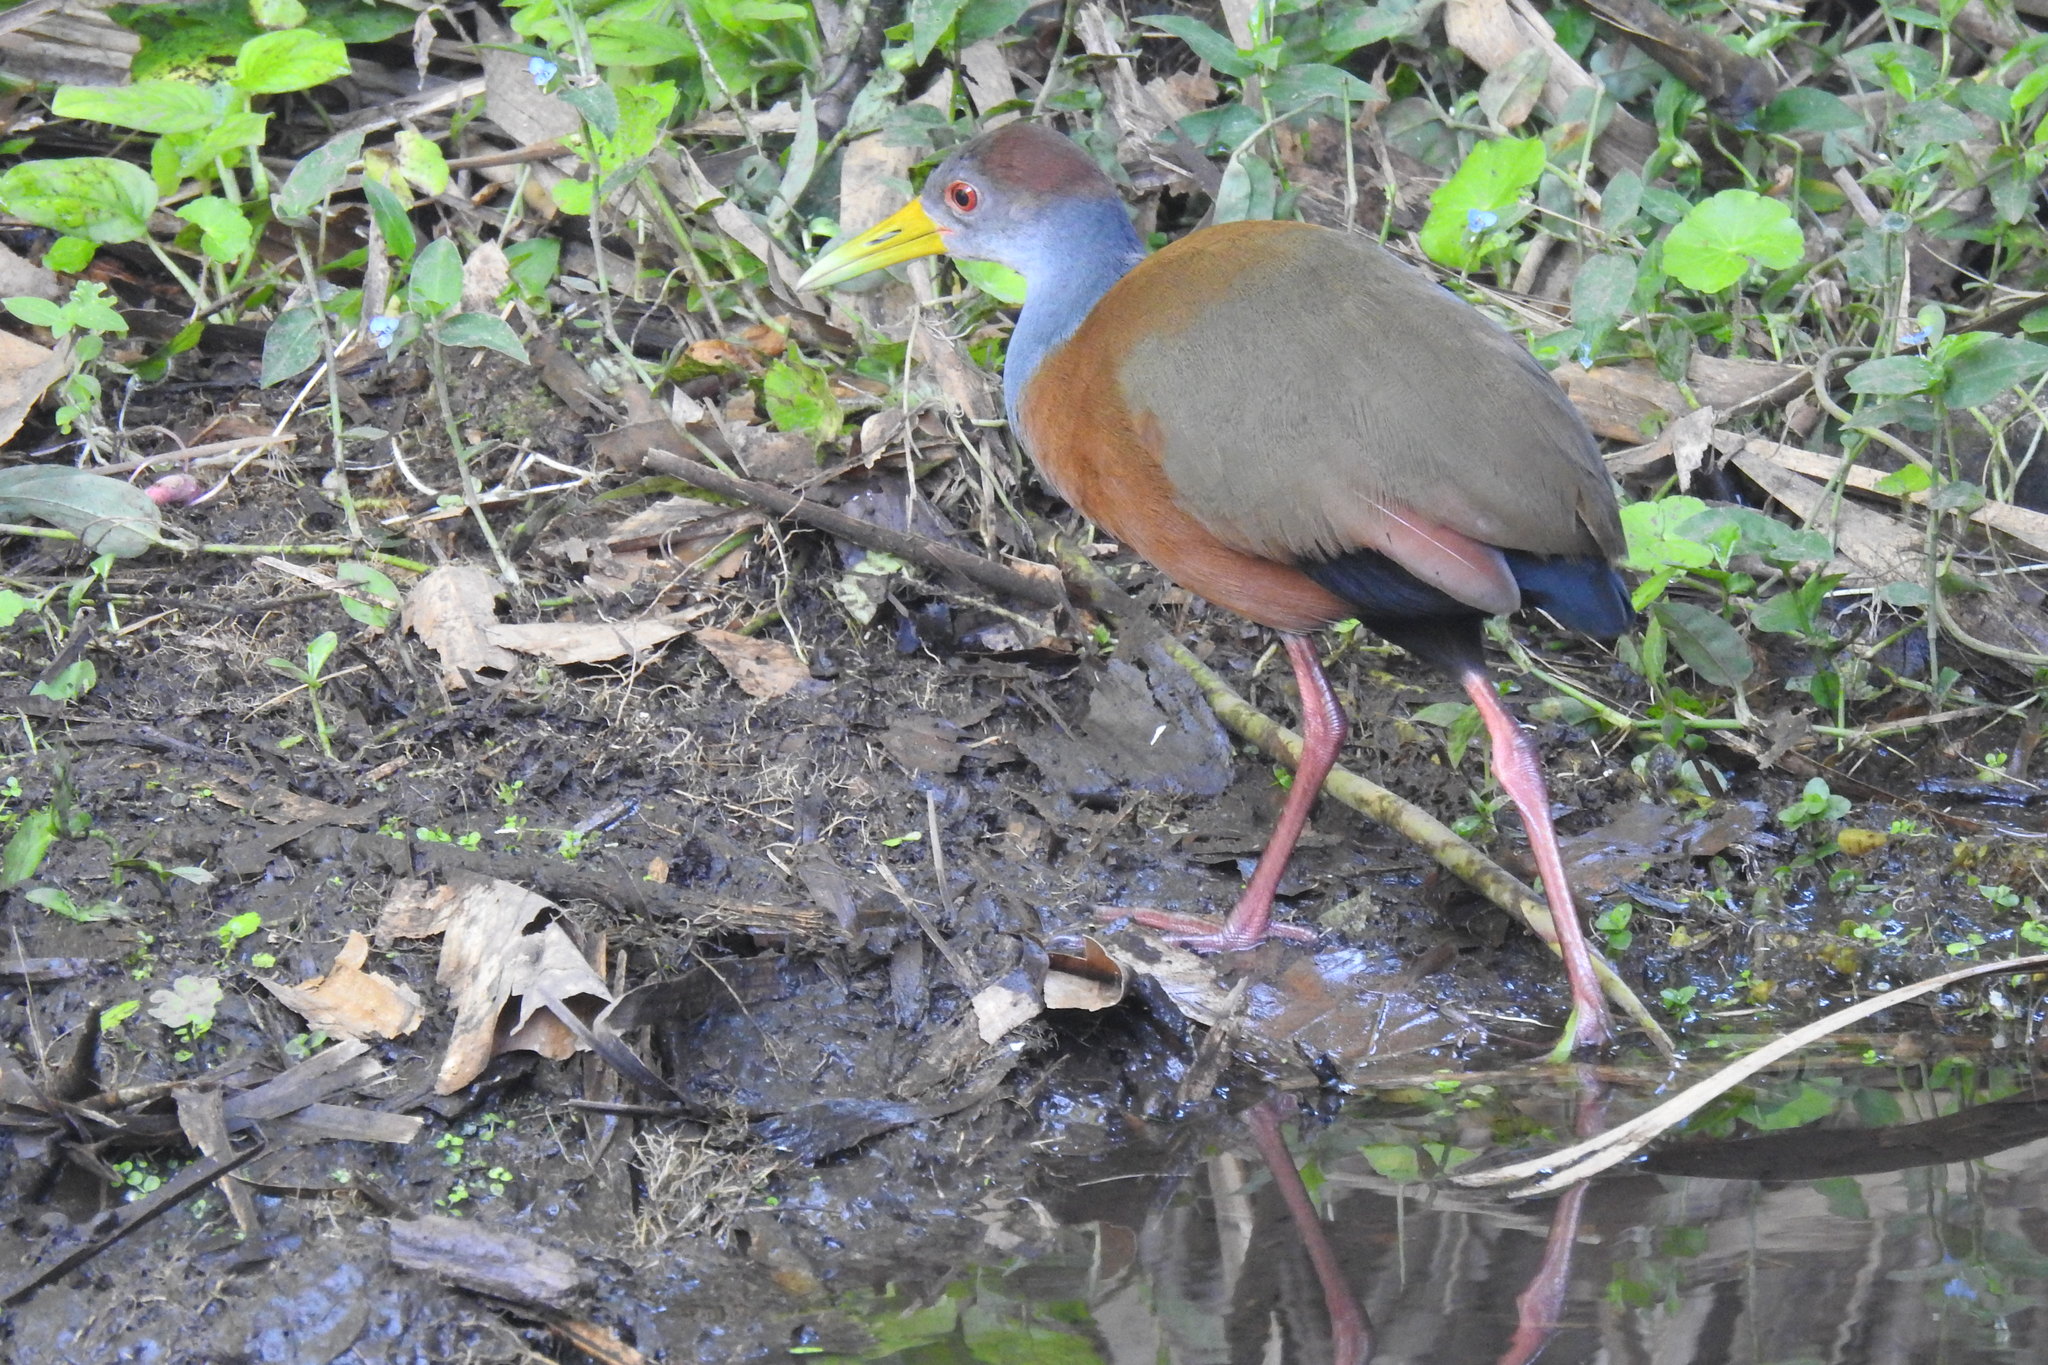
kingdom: Animalia
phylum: Chordata
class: Aves
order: Gruiformes
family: Rallidae
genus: Aramides
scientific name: Aramides albiventris
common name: Russet-naped wood-rail
